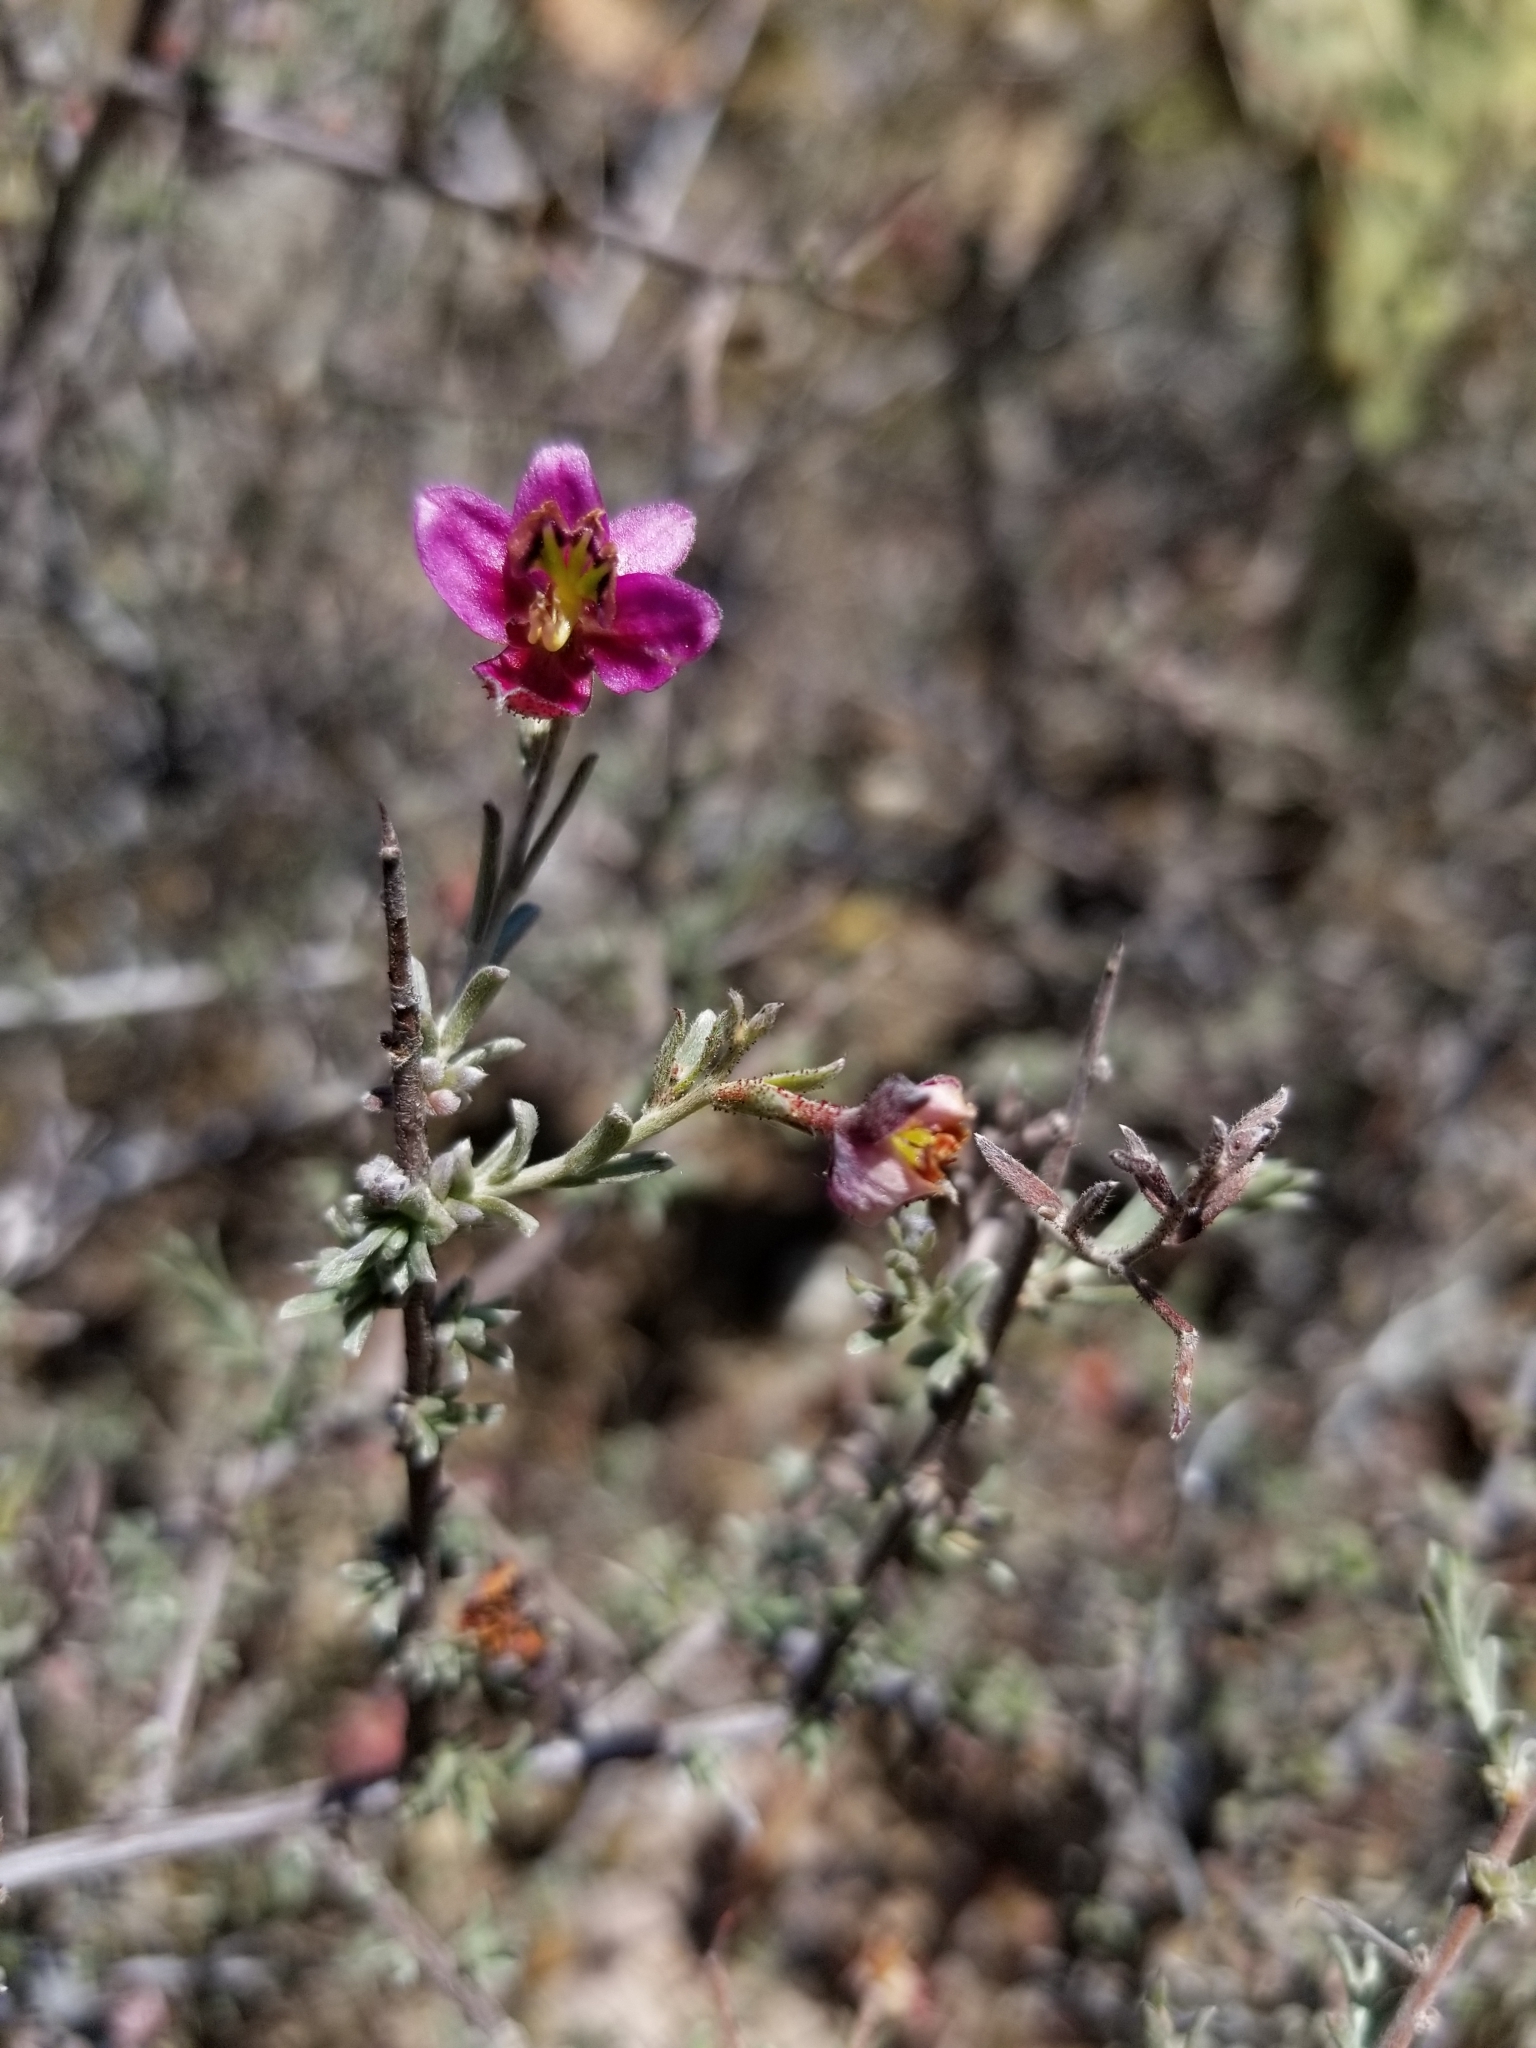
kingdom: Plantae
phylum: Tracheophyta
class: Magnoliopsida
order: Zygophyllales
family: Krameriaceae
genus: Krameria
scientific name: Krameria erecta
